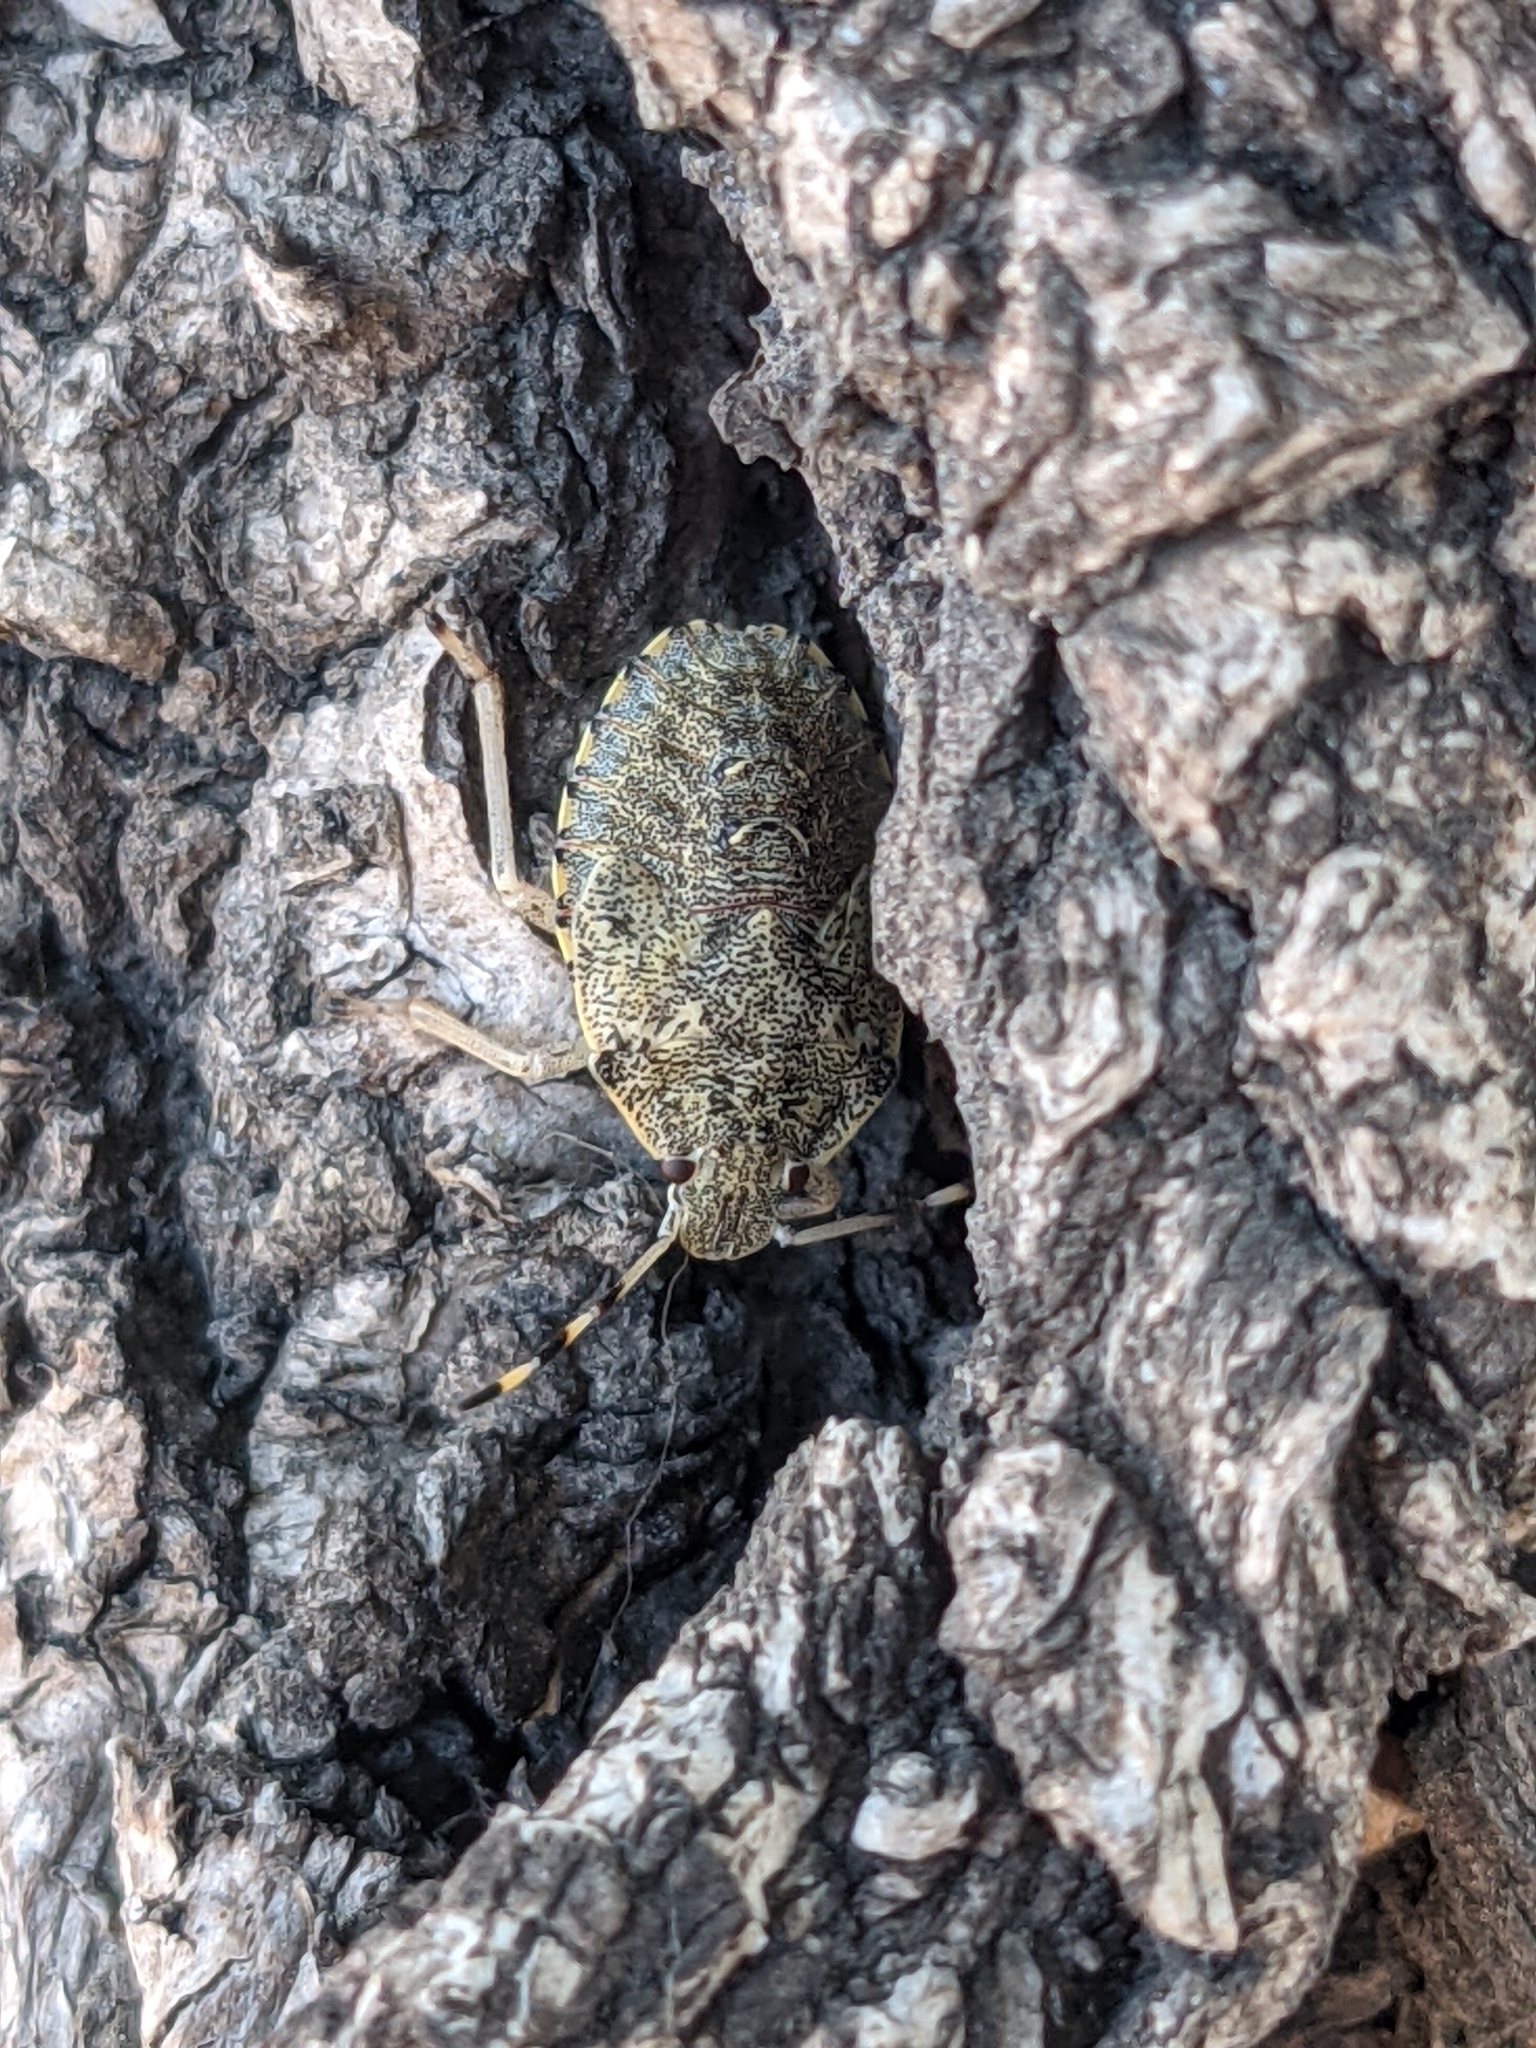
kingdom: Animalia
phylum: Arthropoda
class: Insecta
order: Hemiptera
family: Pentatomidae
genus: Rhaphigaster
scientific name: Rhaphigaster nebulosa
